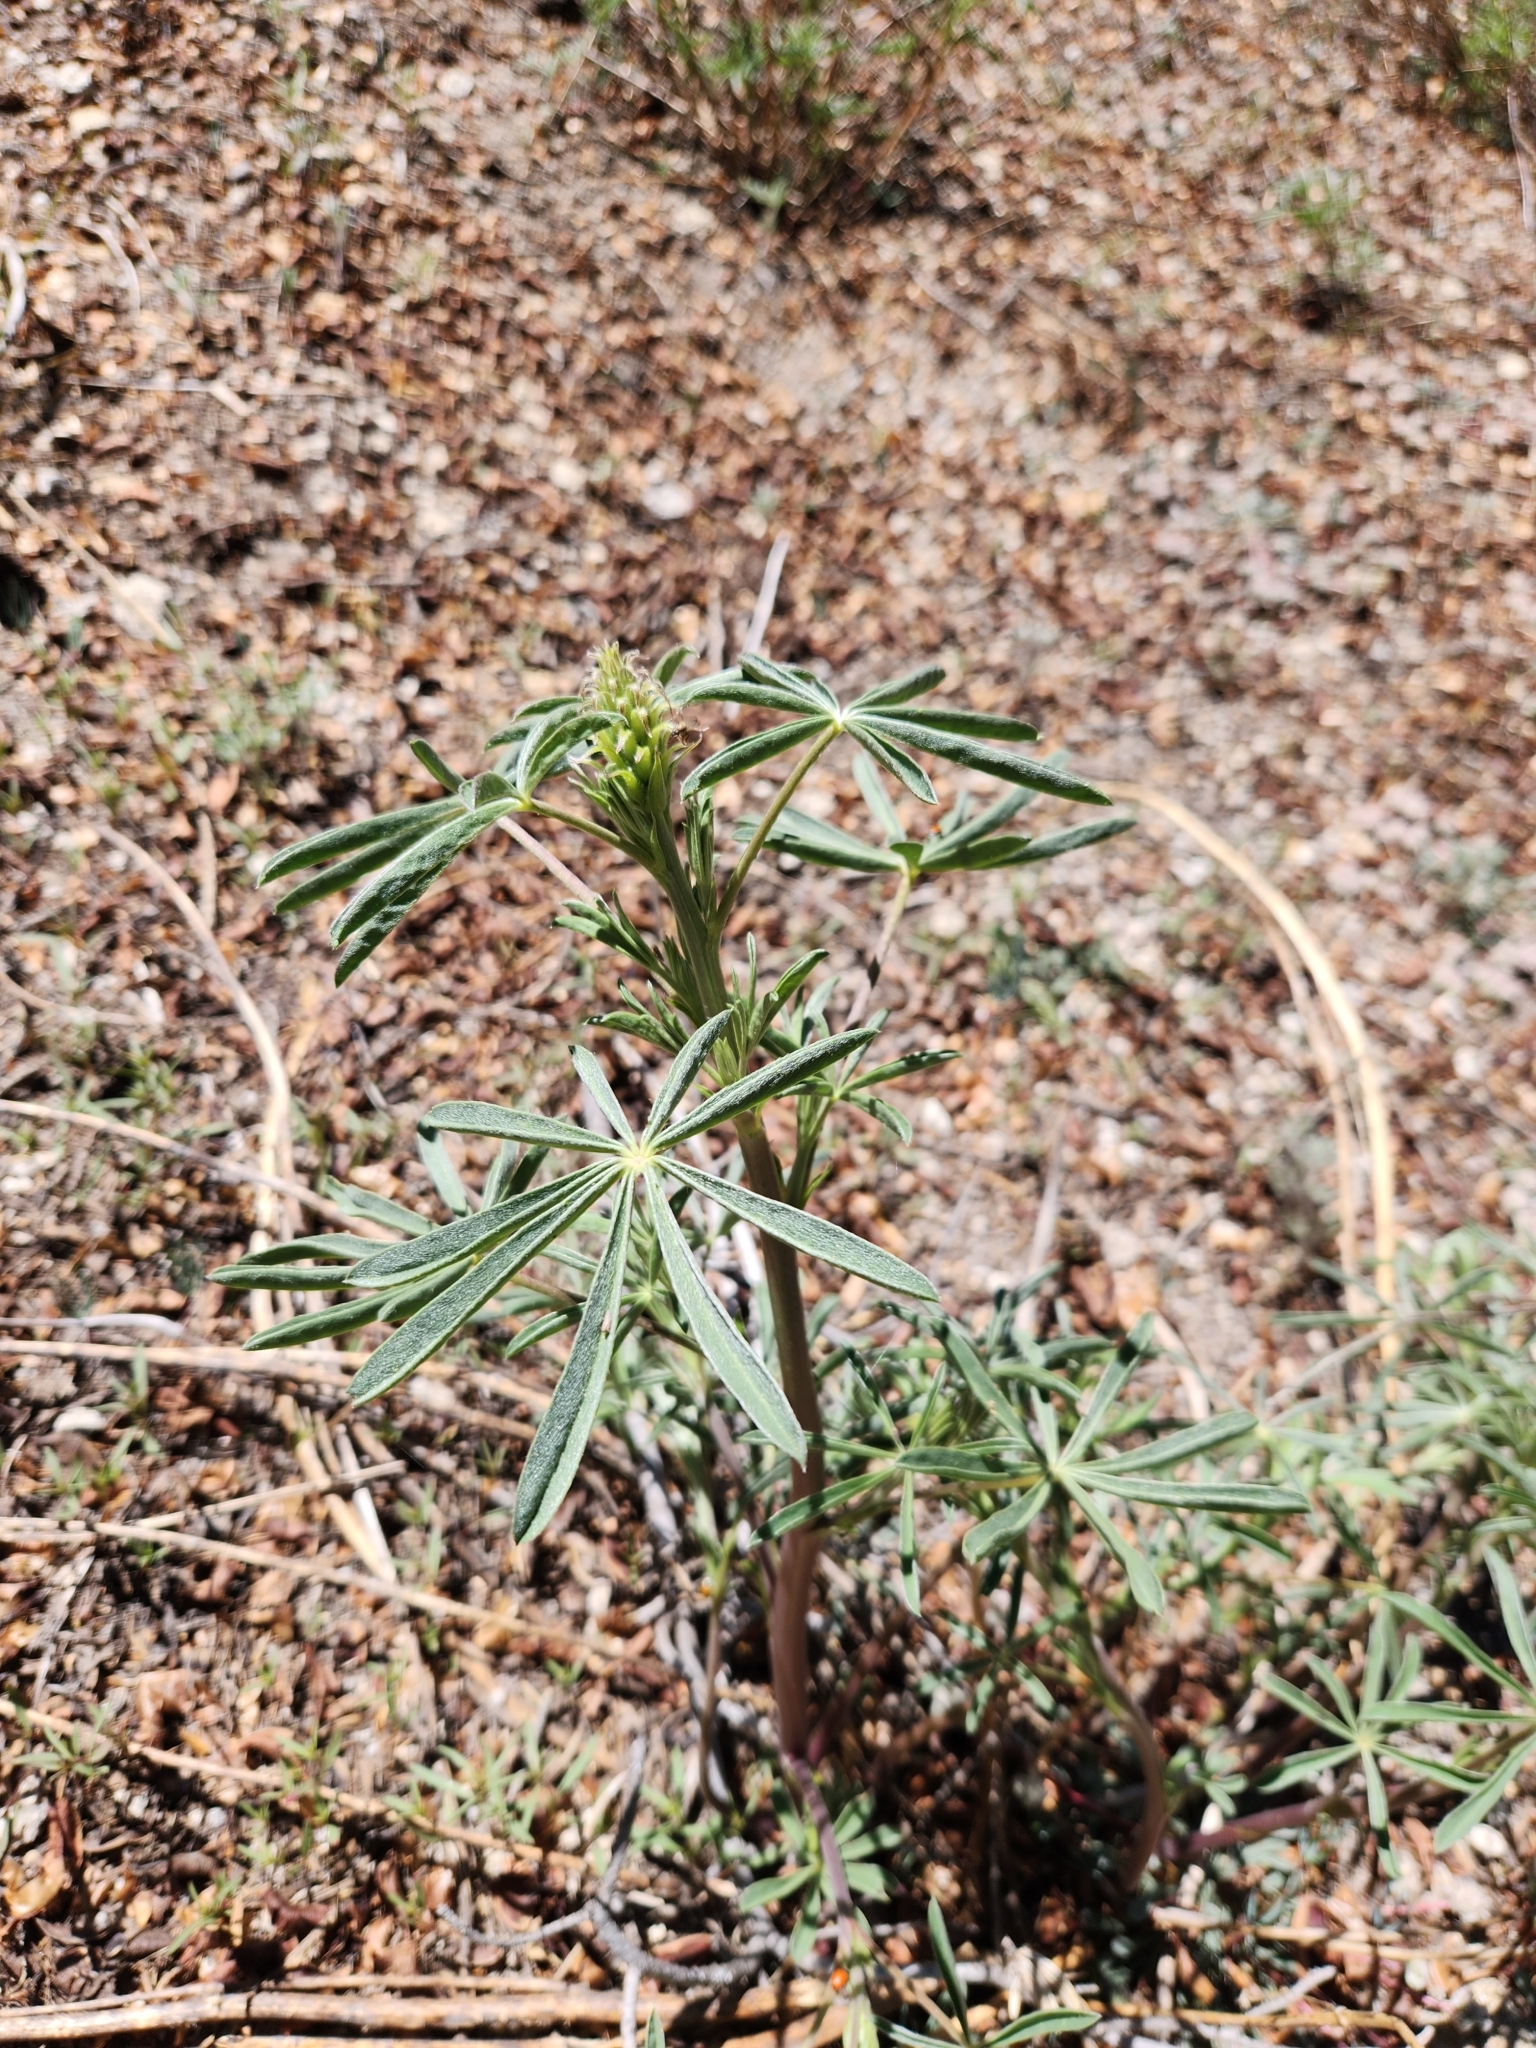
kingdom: Plantae
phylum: Tracheophyta
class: Magnoliopsida
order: Fabales
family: Fabaceae
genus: Lupinus
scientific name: Lupinus hyacinthinus
